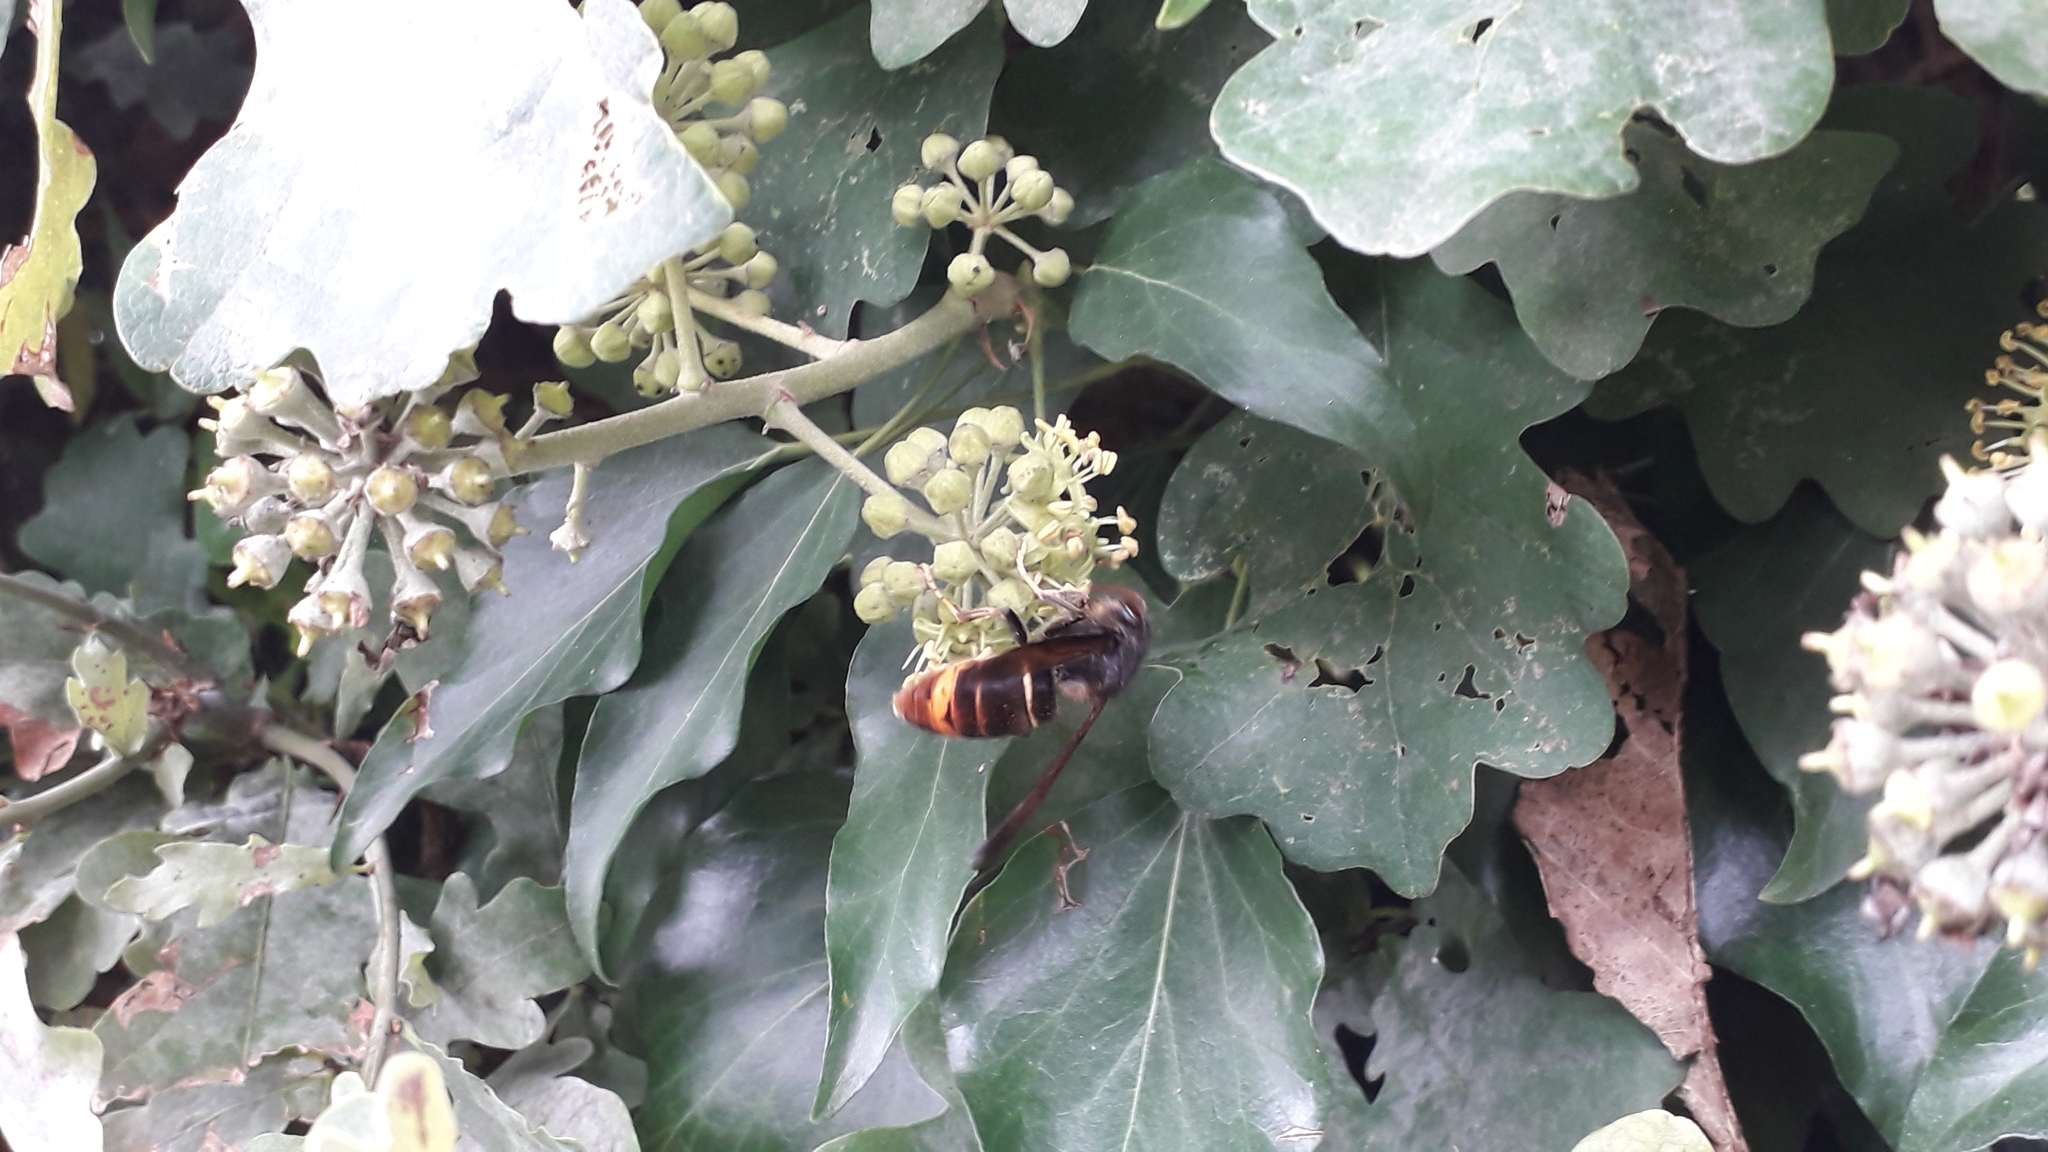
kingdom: Animalia
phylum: Arthropoda
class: Insecta
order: Hymenoptera
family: Vespidae
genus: Vespa
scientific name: Vespa velutina
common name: Asian hornet
